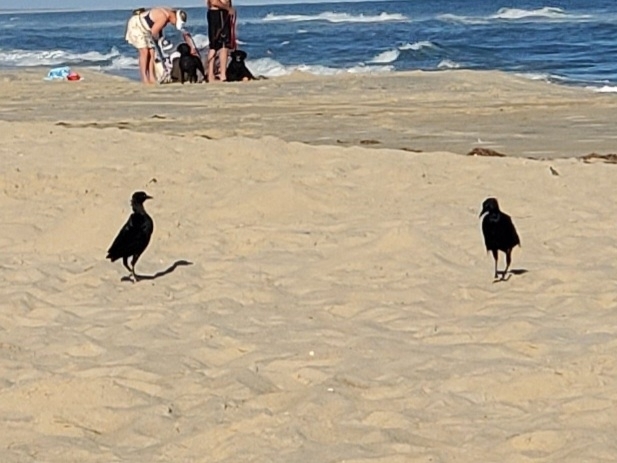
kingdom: Animalia
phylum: Chordata
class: Aves
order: Passeriformes
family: Icteridae
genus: Quiscalus
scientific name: Quiscalus major
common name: Boat-tailed grackle
